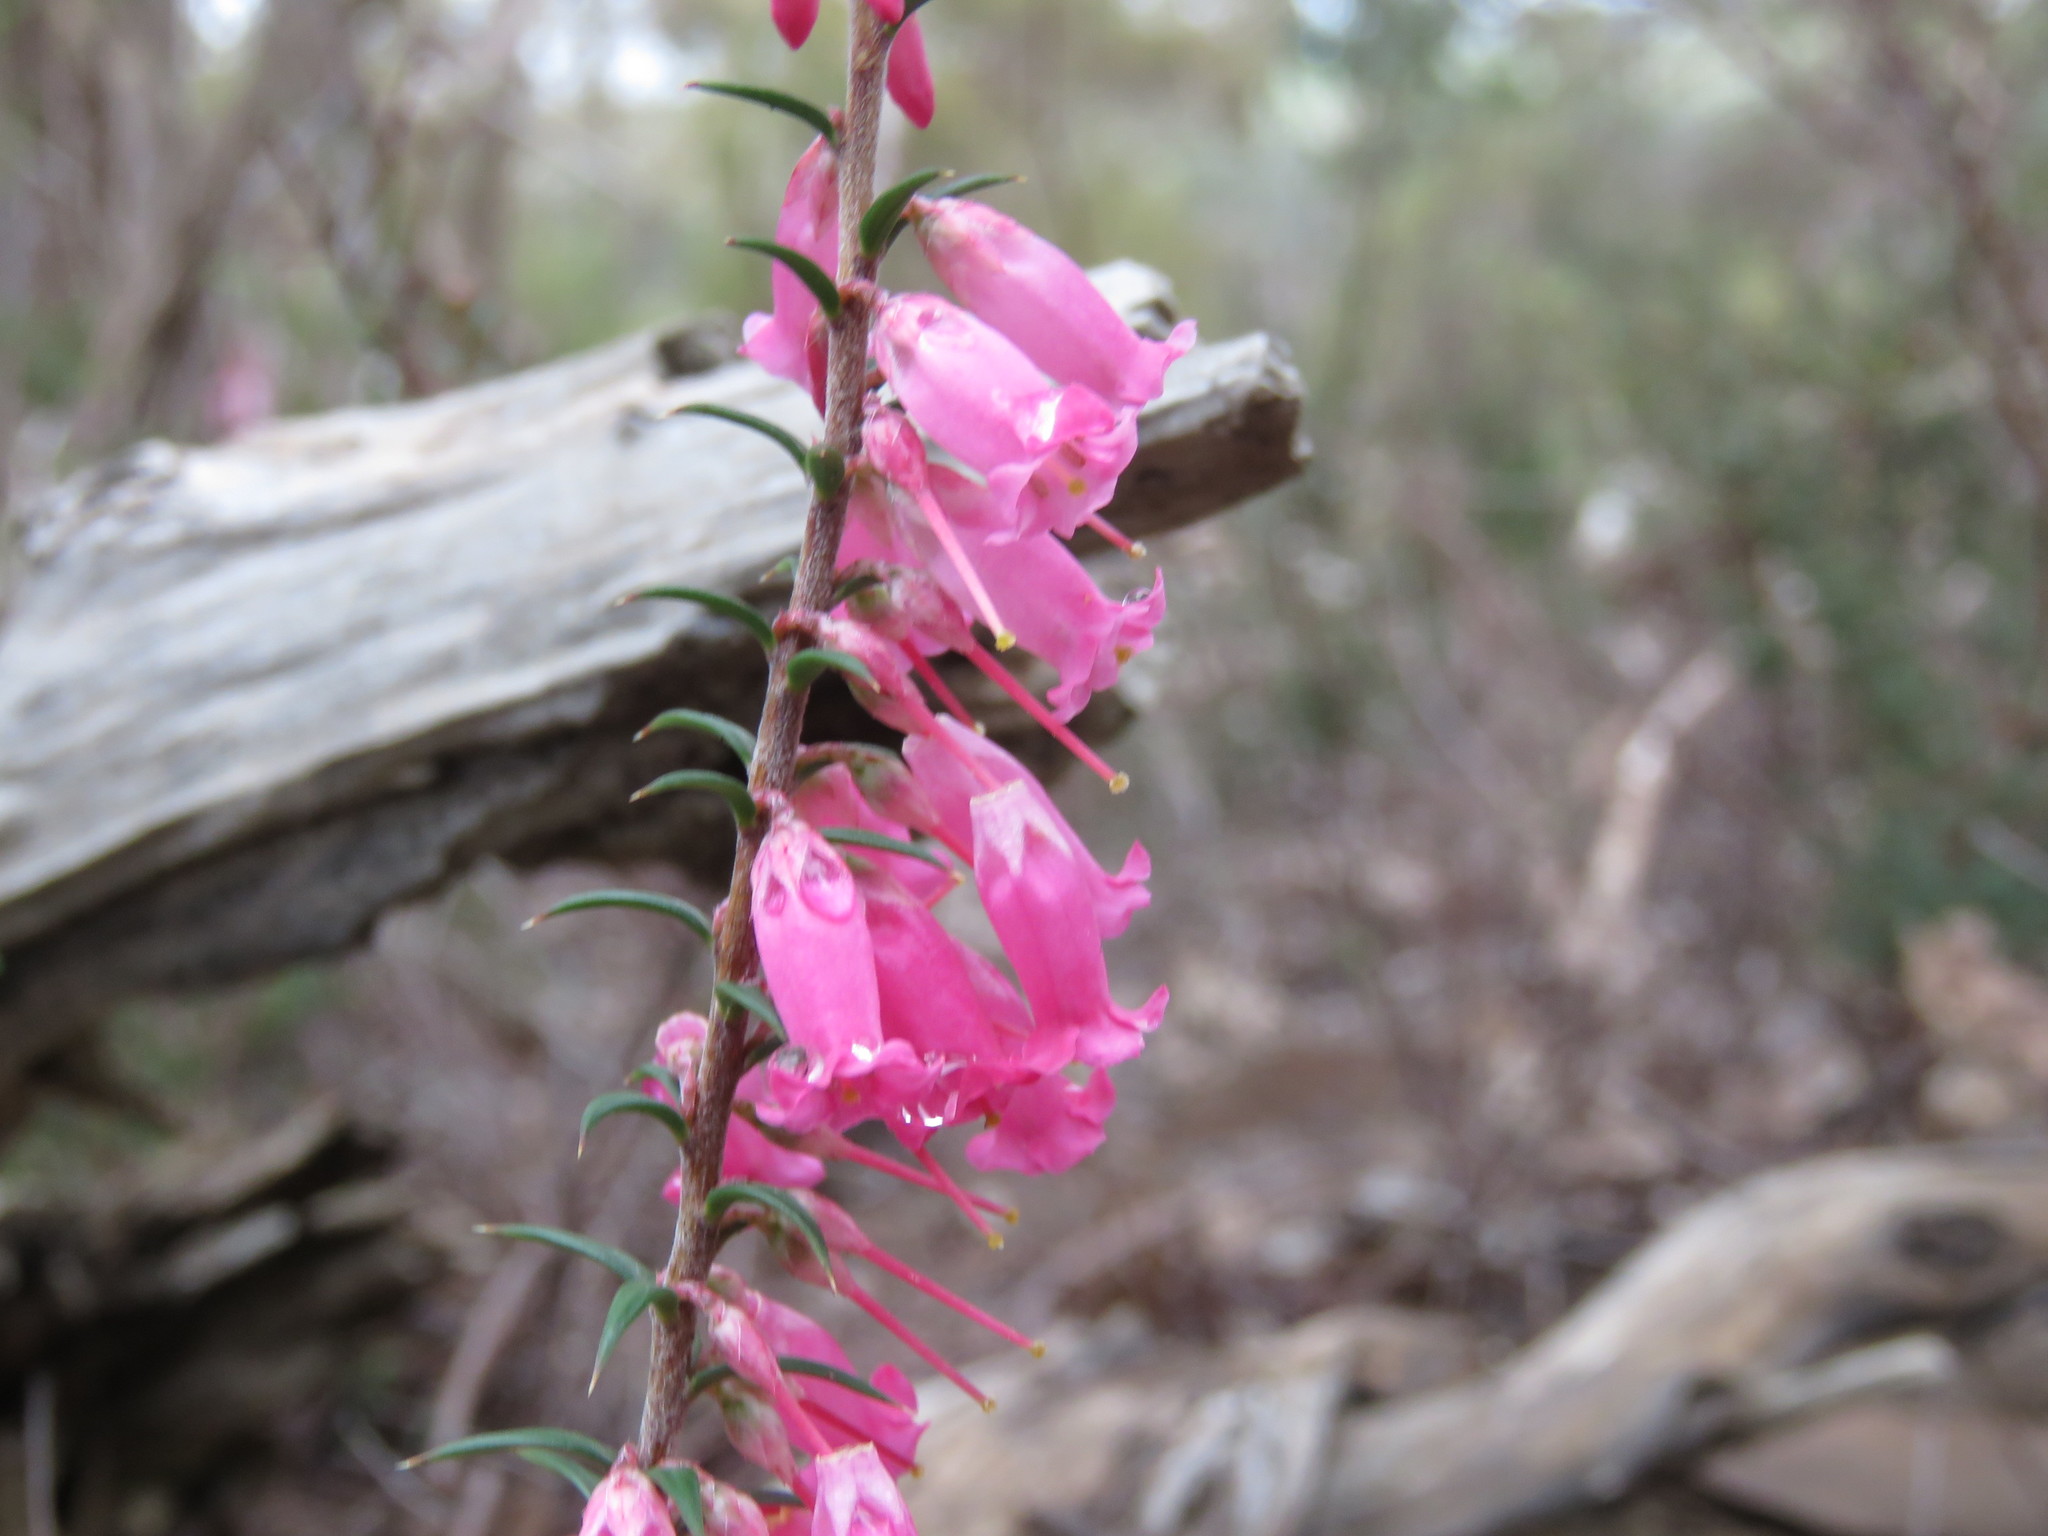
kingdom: Plantae
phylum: Tracheophyta
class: Magnoliopsida
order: Ericales
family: Ericaceae
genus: Epacris
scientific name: Epacris impressa
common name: Common-heath
